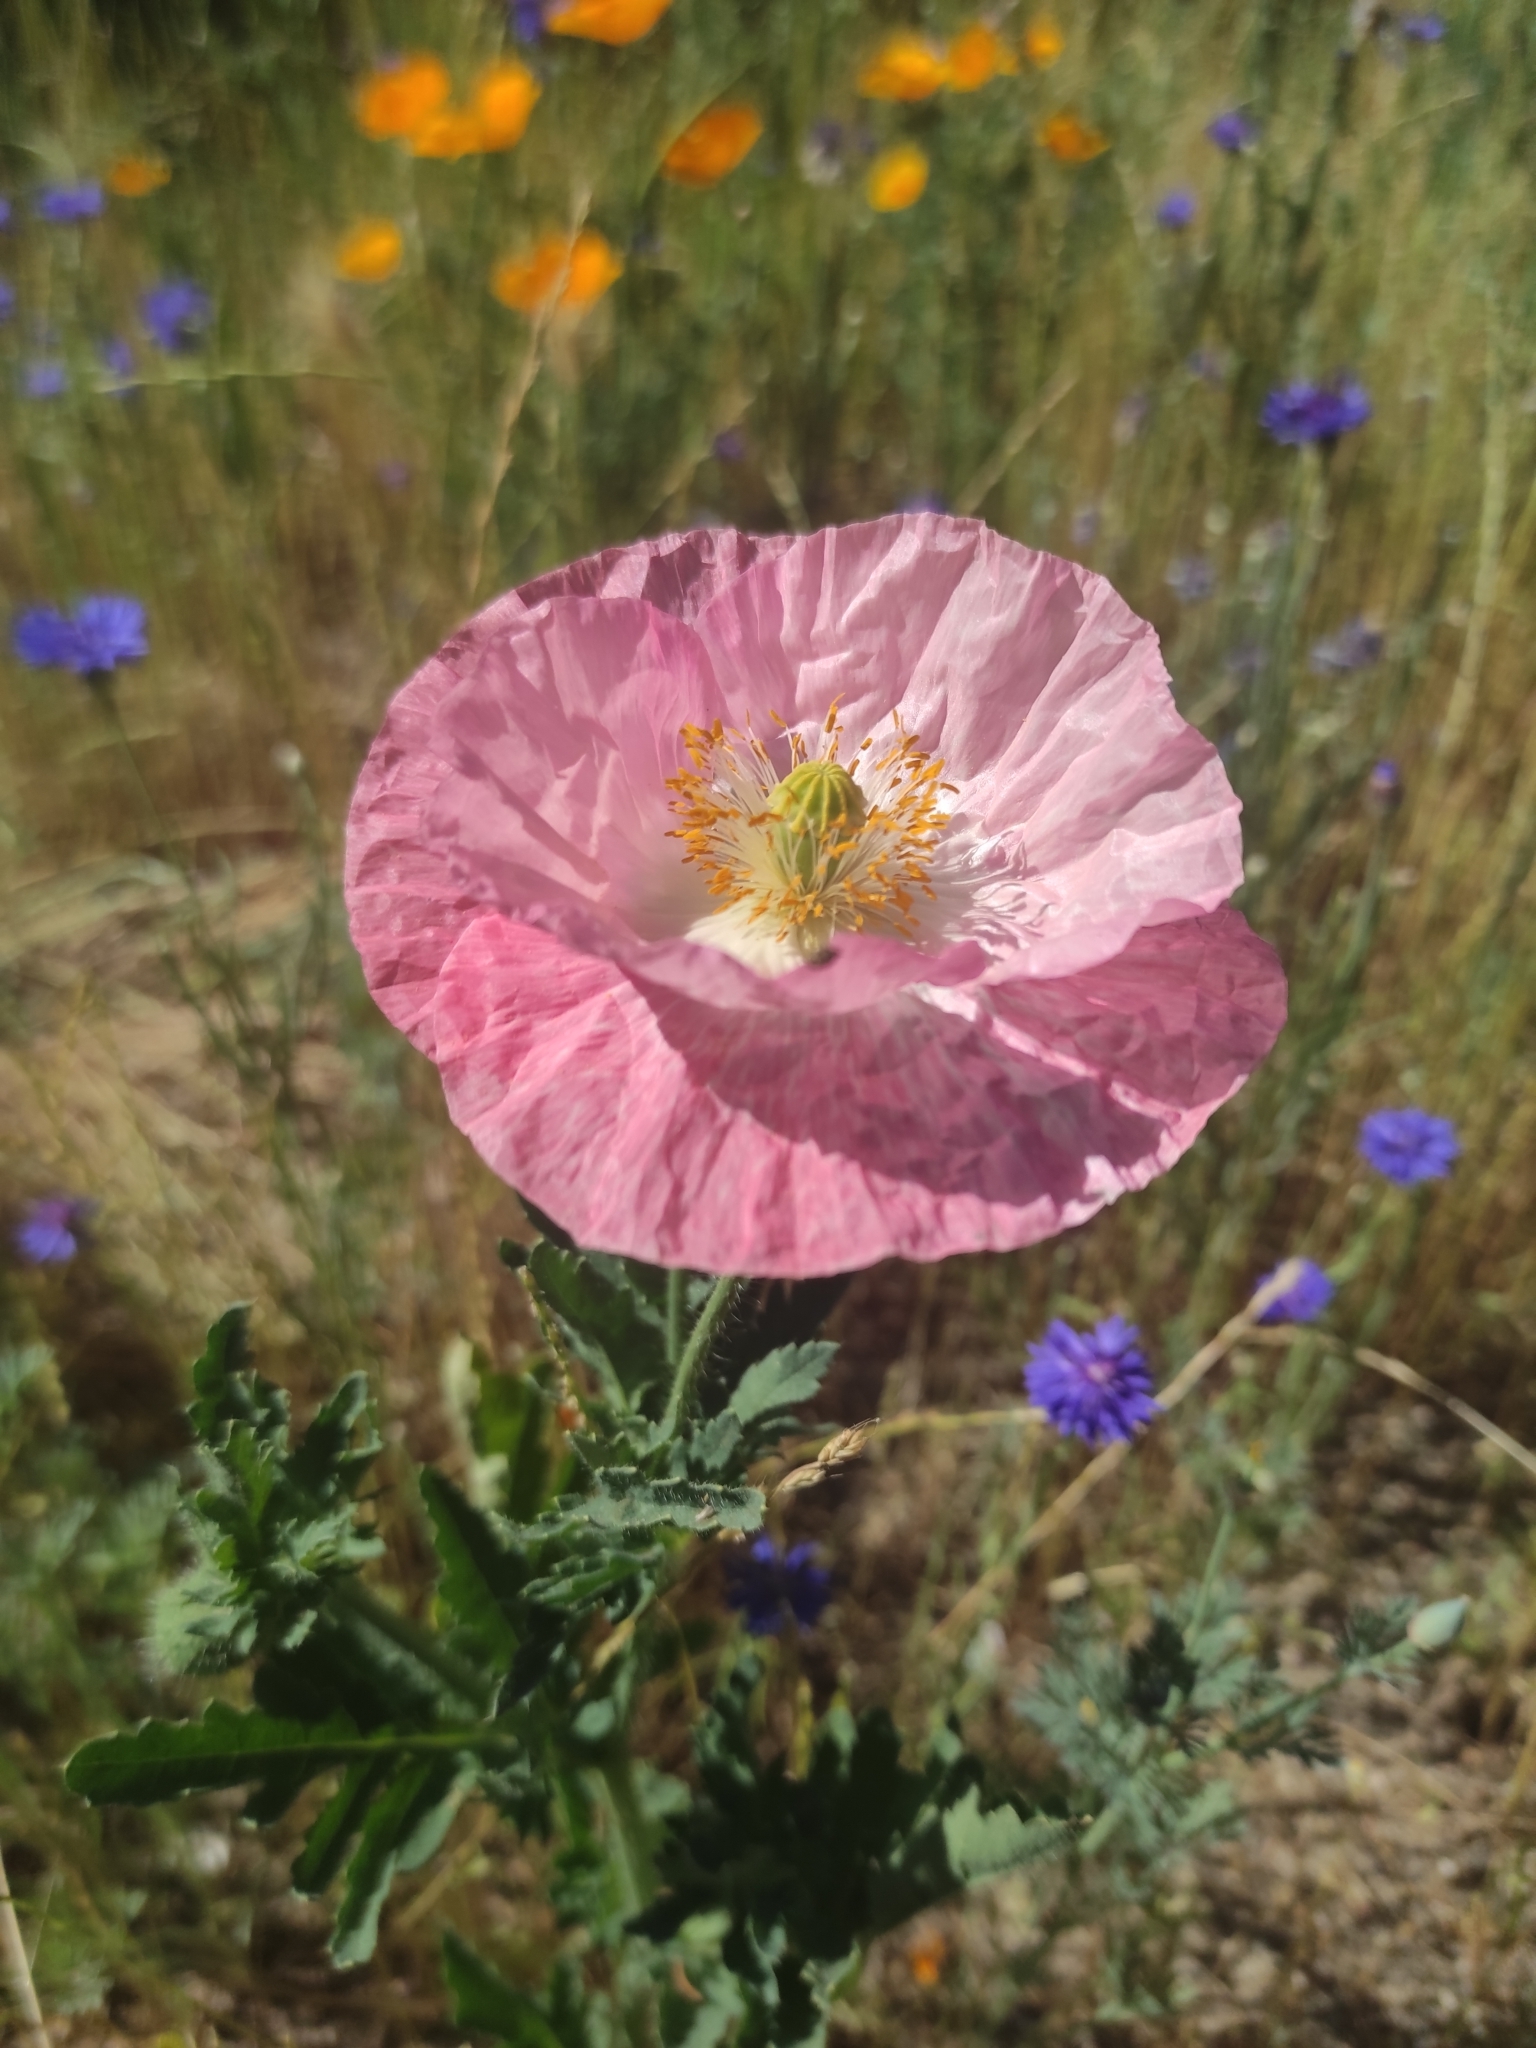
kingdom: Plantae
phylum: Tracheophyta
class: Magnoliopsida
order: Ranunculales
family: Papaveraceae
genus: Papaver
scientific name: Papaver somniferum
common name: Opium poppy
